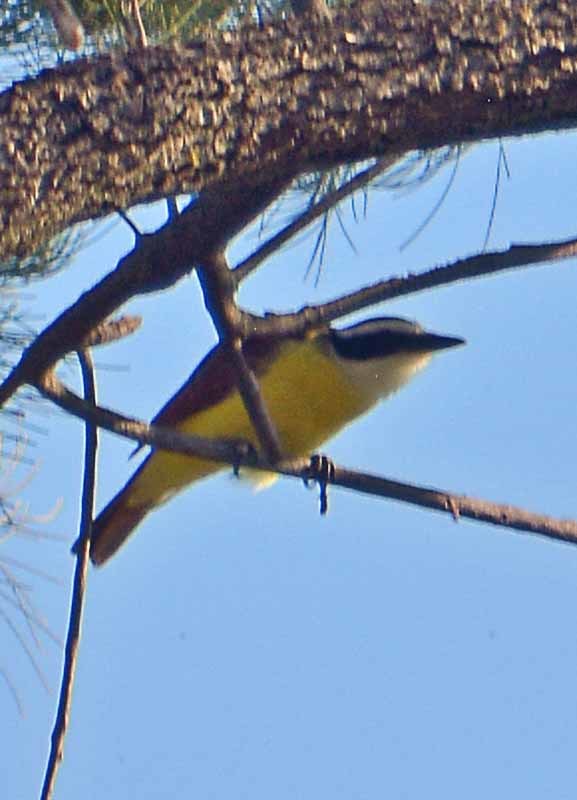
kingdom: Animalia
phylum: Chordata
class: Aves
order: Passeriformes
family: Tyrannidae
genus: Pitangus
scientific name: Pitangus sulphuratus
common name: Great kiskadee
